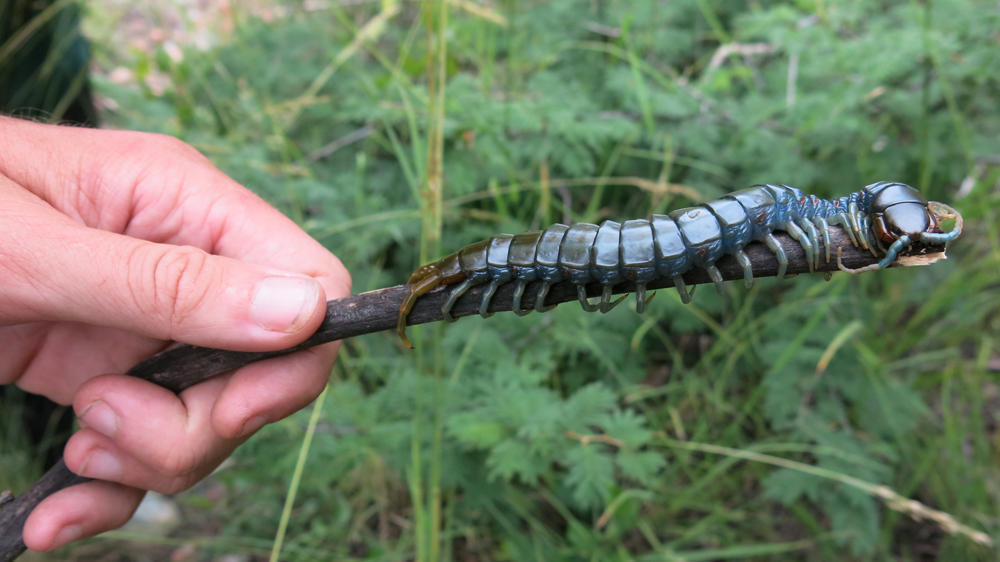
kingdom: Animalia
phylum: Arthropoda
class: Chilopoda
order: Scolopendromorpha
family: Scolopendridae
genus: Ethmostigmus
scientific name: Ethmostigmus trigonopodus
